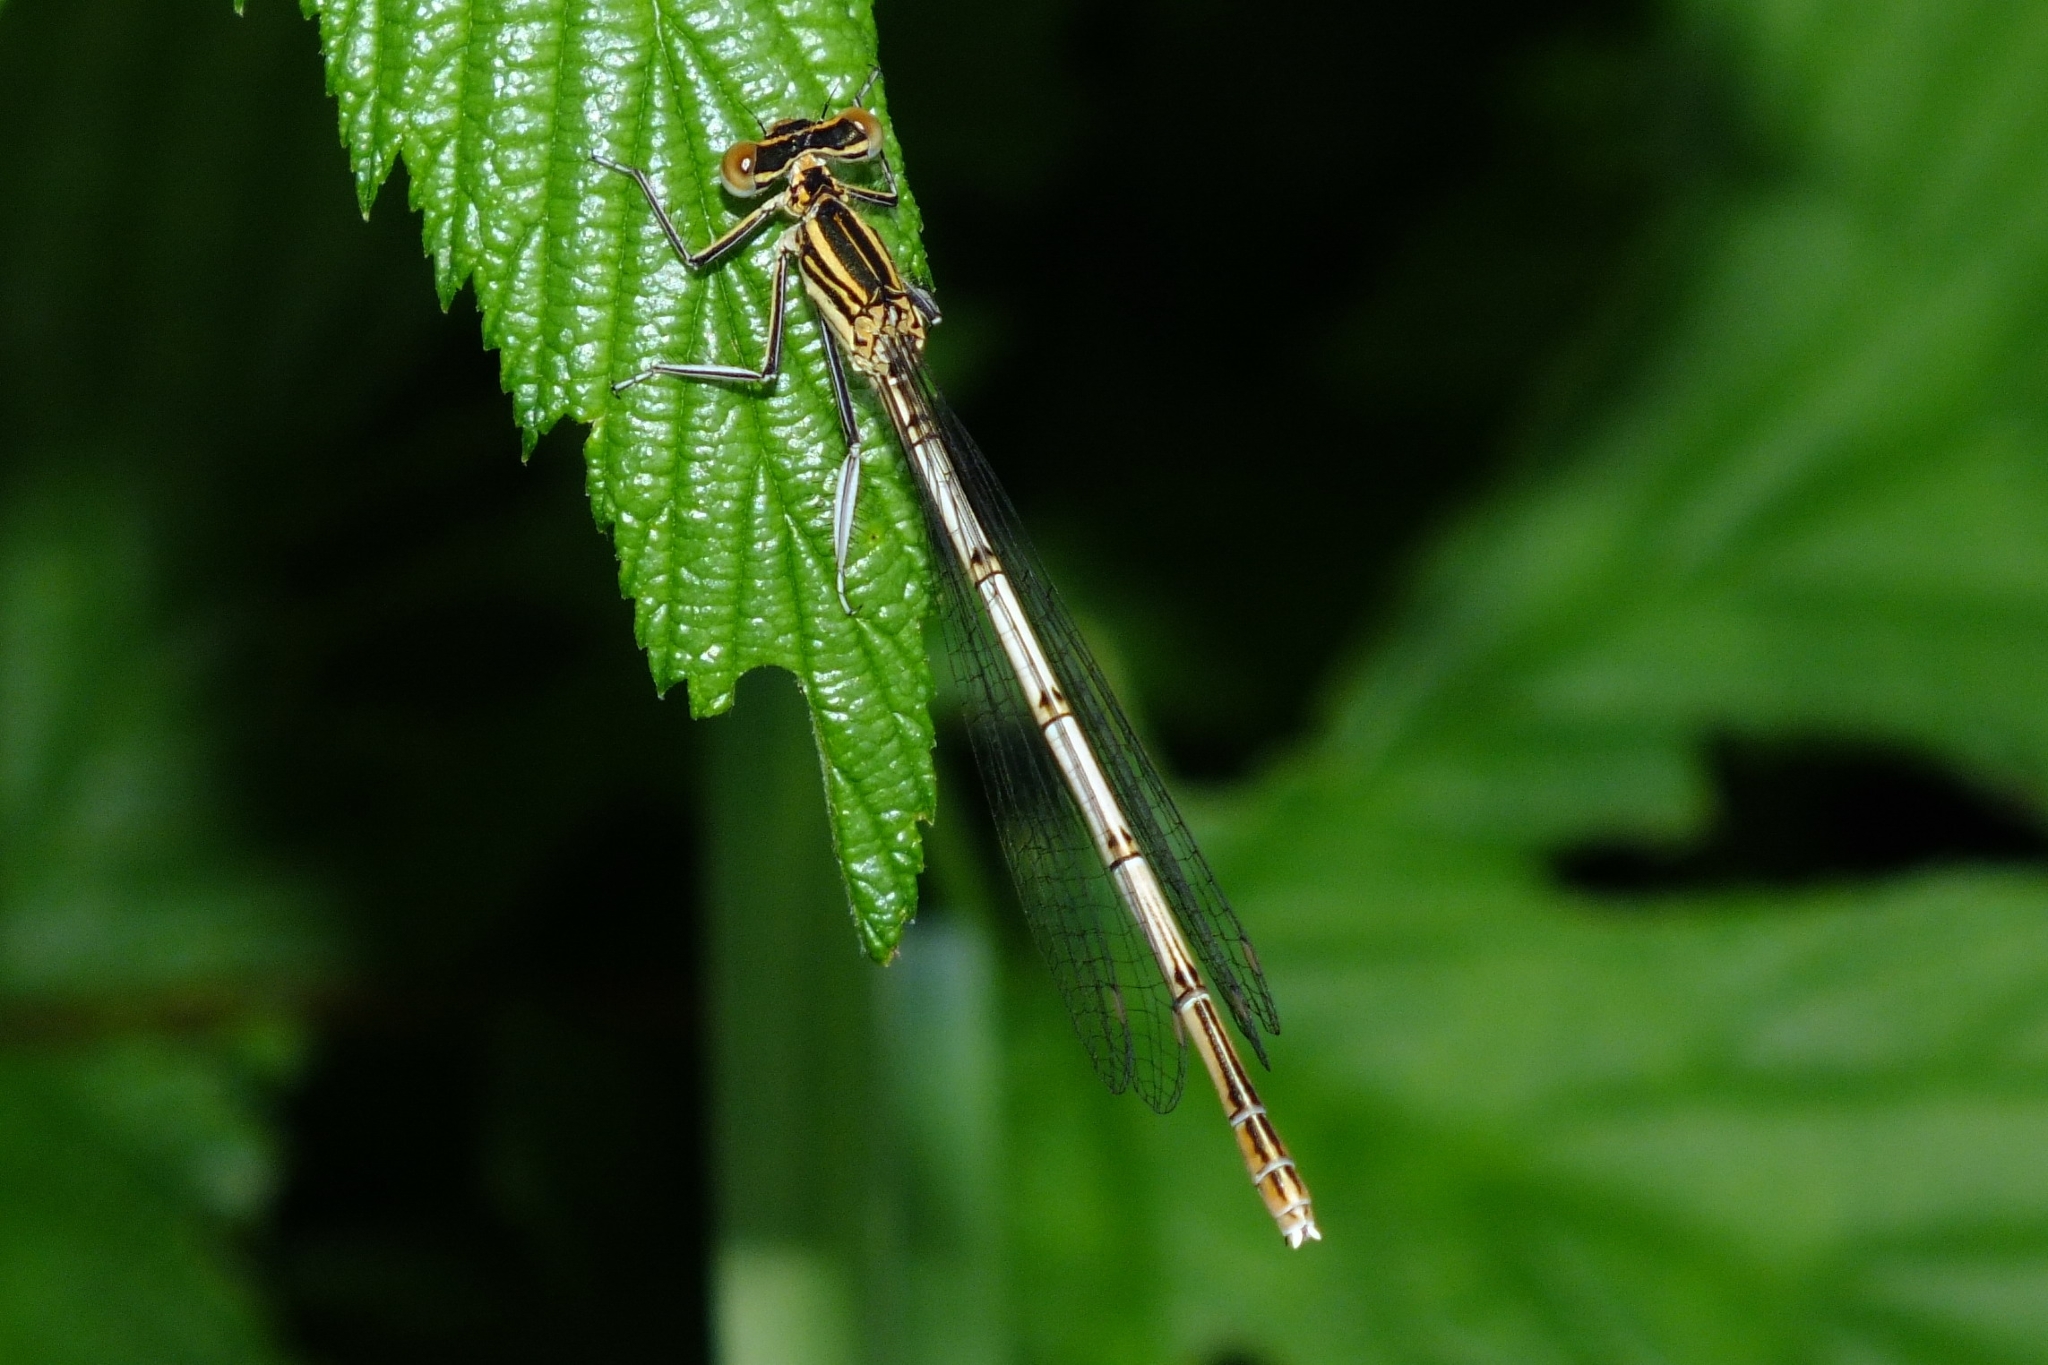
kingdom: Animalia
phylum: Arthropoda
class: Insecta
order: Odonata
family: Platycnemididae
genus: Platycnemis
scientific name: Platycnemis pennipes
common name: White-legged damselfly
